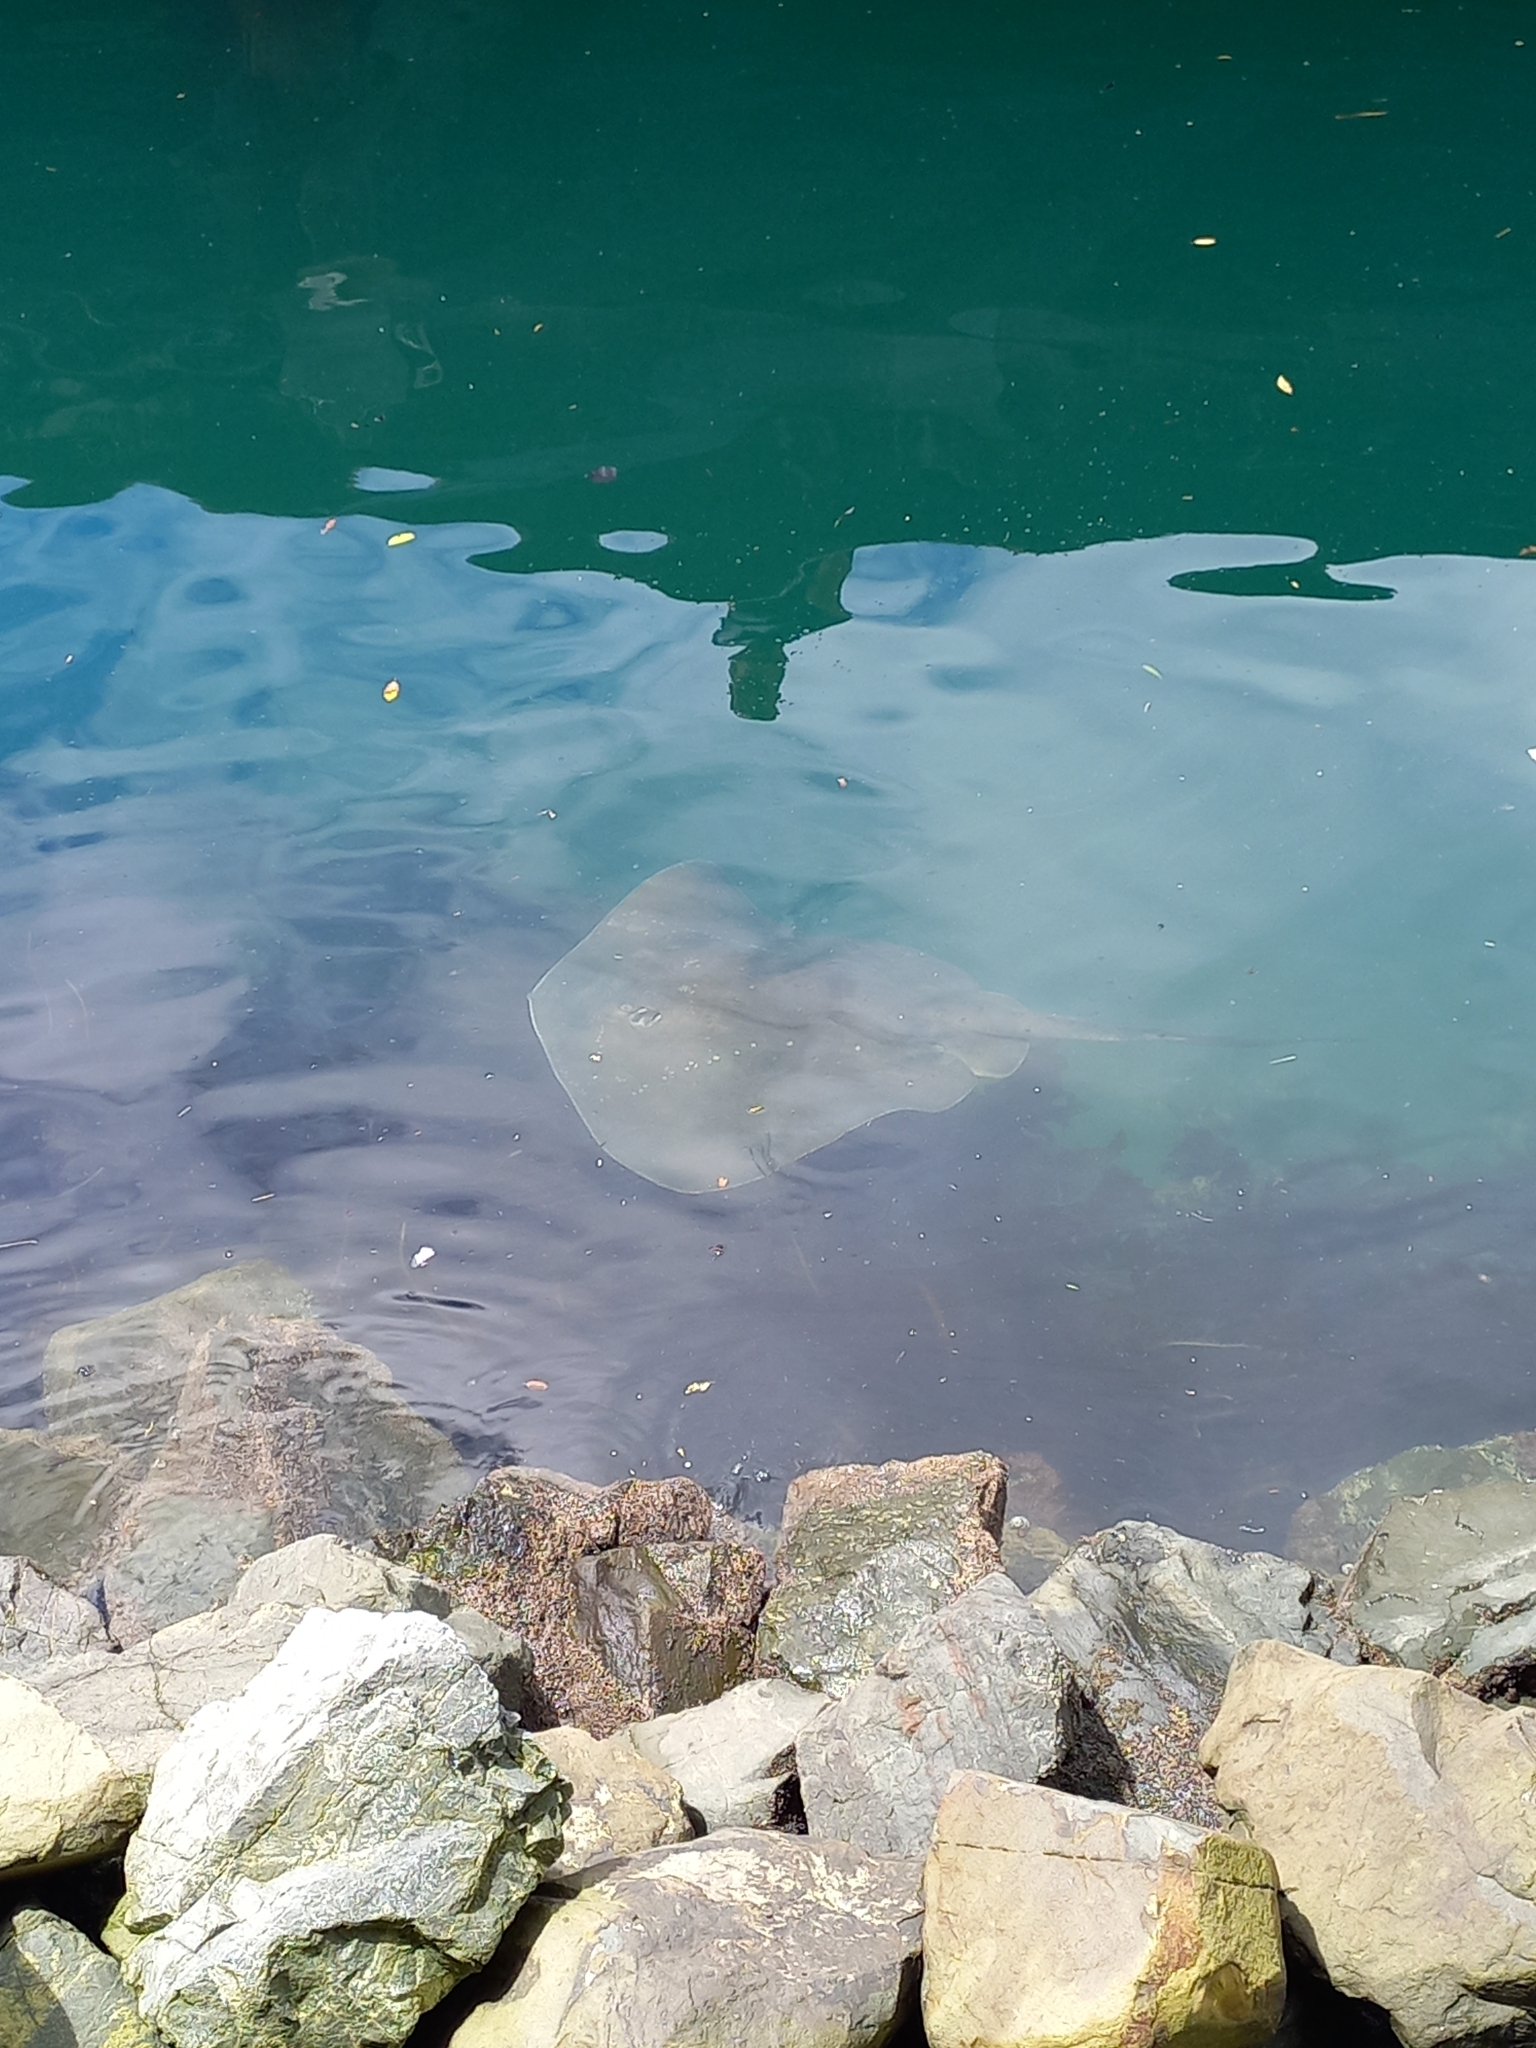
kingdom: Animalia
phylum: Chordata
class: Elasmobranchii
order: Myliobatiformes
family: Dasyatidae
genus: Bathytoshia
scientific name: Bathytoshia brevicaudata
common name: Short-tail stingray
